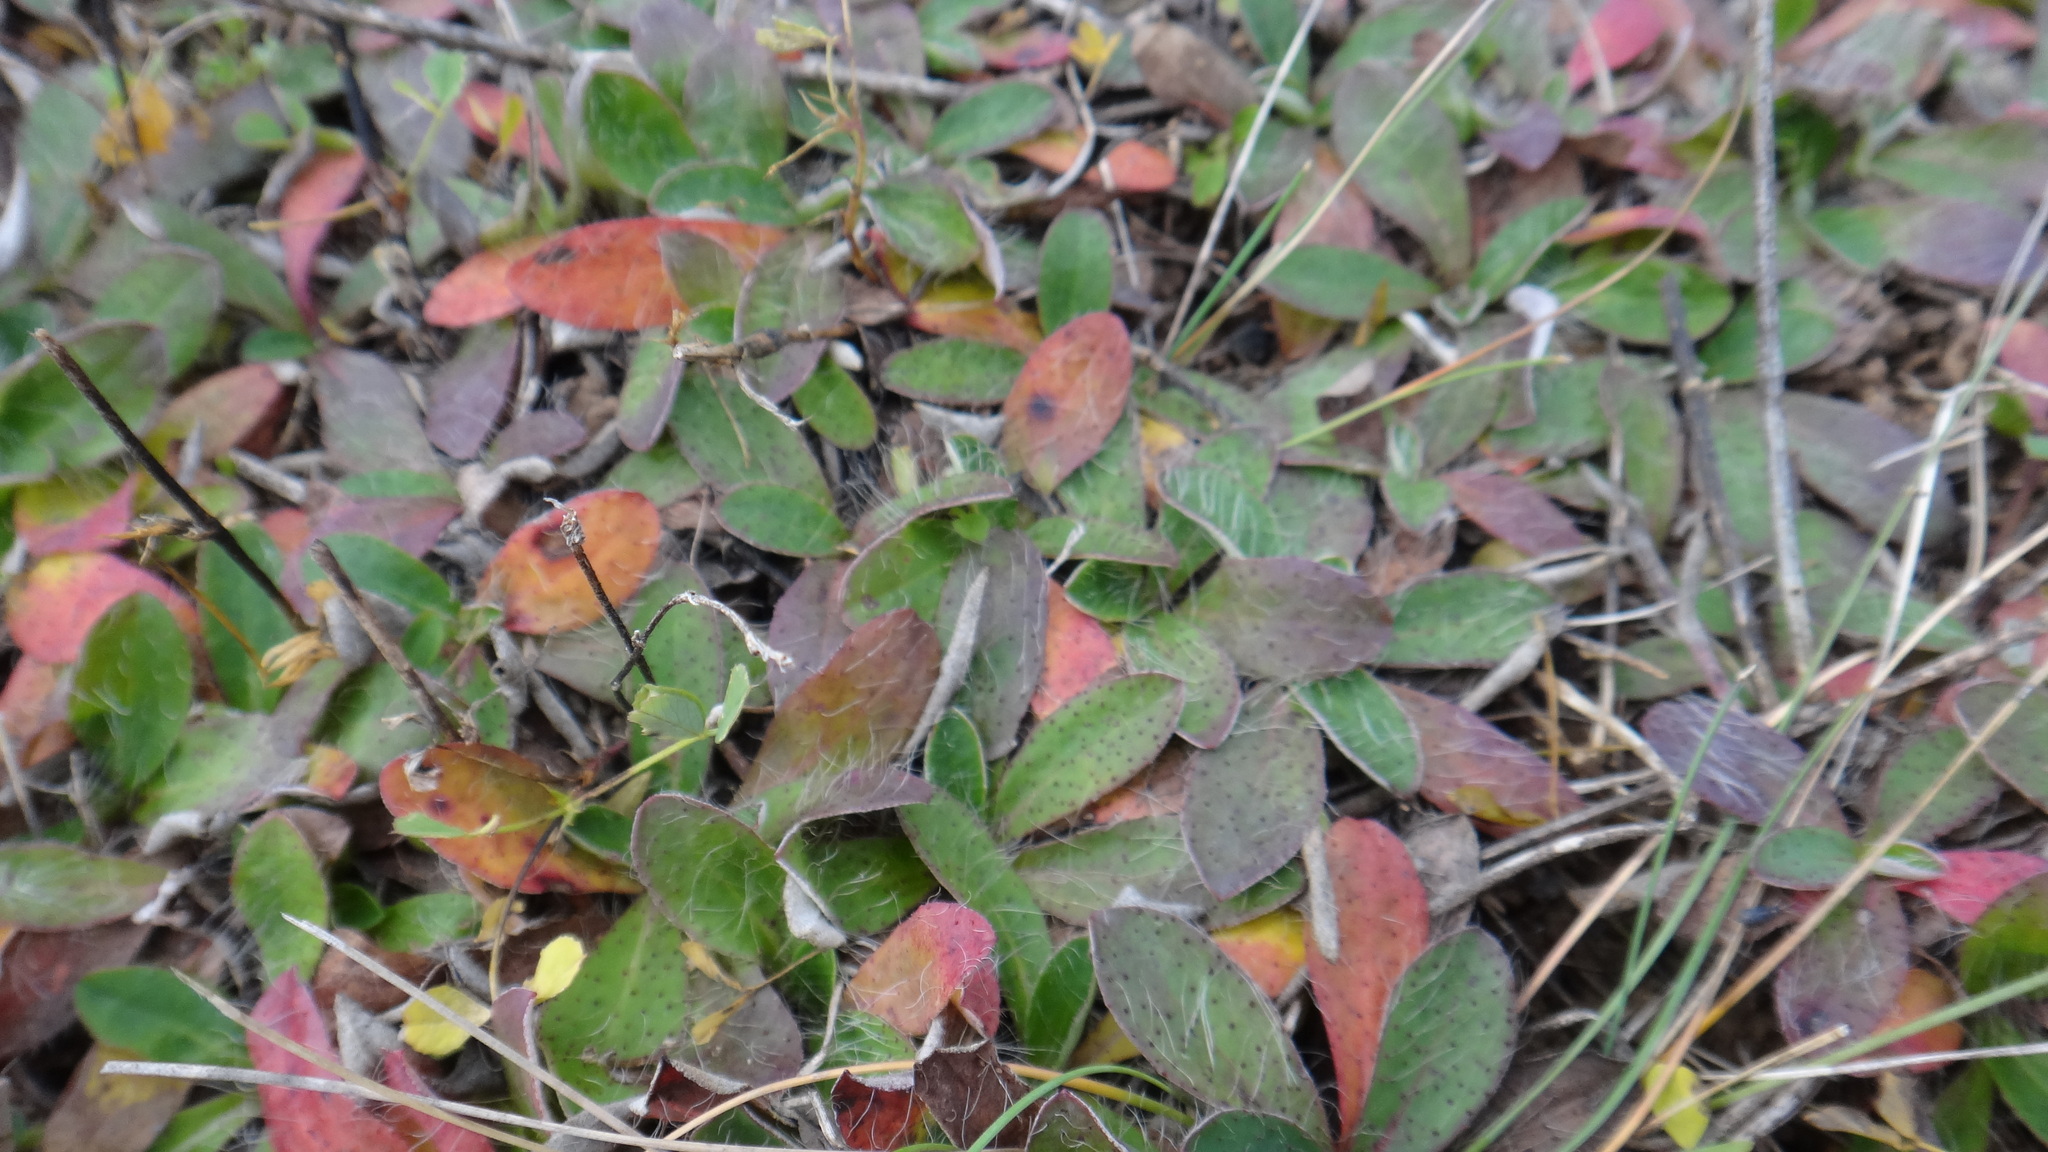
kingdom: Plantae
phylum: Tracheophyta
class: Magnoliopsida
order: Asterales
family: Asteraceae
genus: Pilosella
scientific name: Pilosella officinarum
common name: Mouse-ear hawkweed
